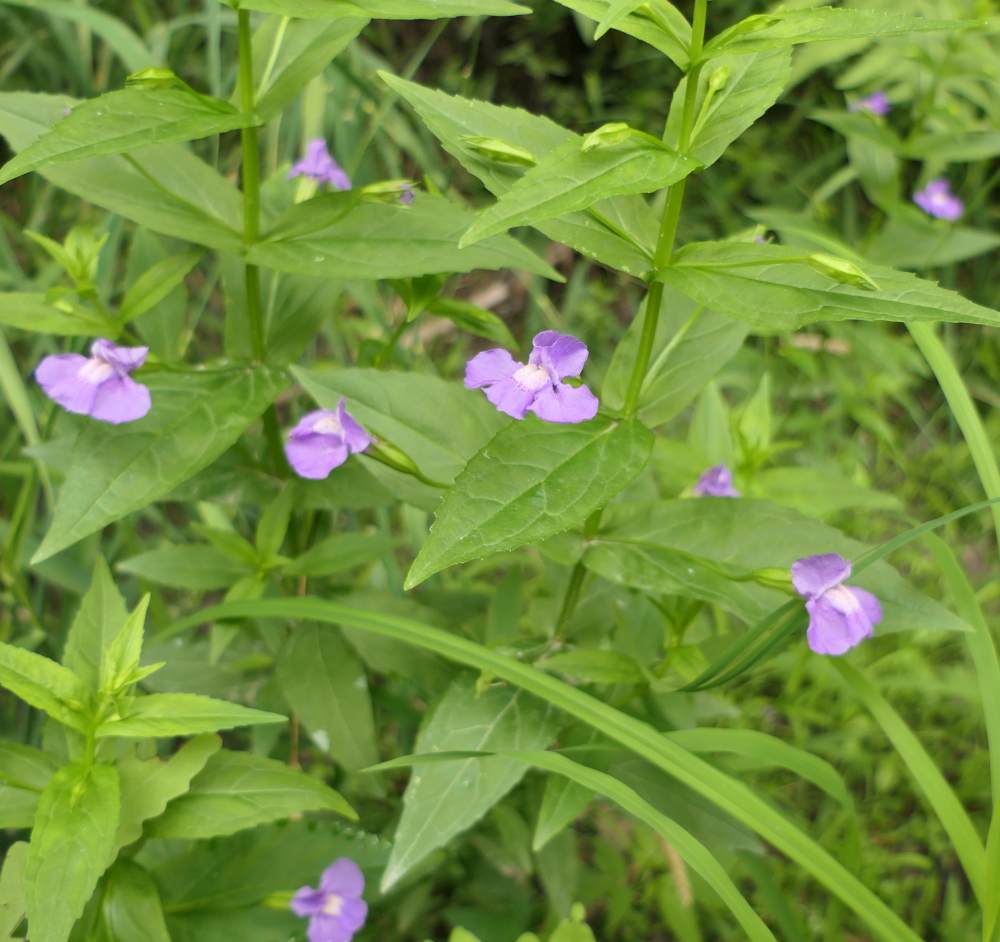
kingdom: Plantae
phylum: Tracheophyta
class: Magnoliopsida
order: Lamiales
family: Phrymaceae
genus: Mimulus
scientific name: Mimulus ringens
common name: Allegheny monkeyflower
